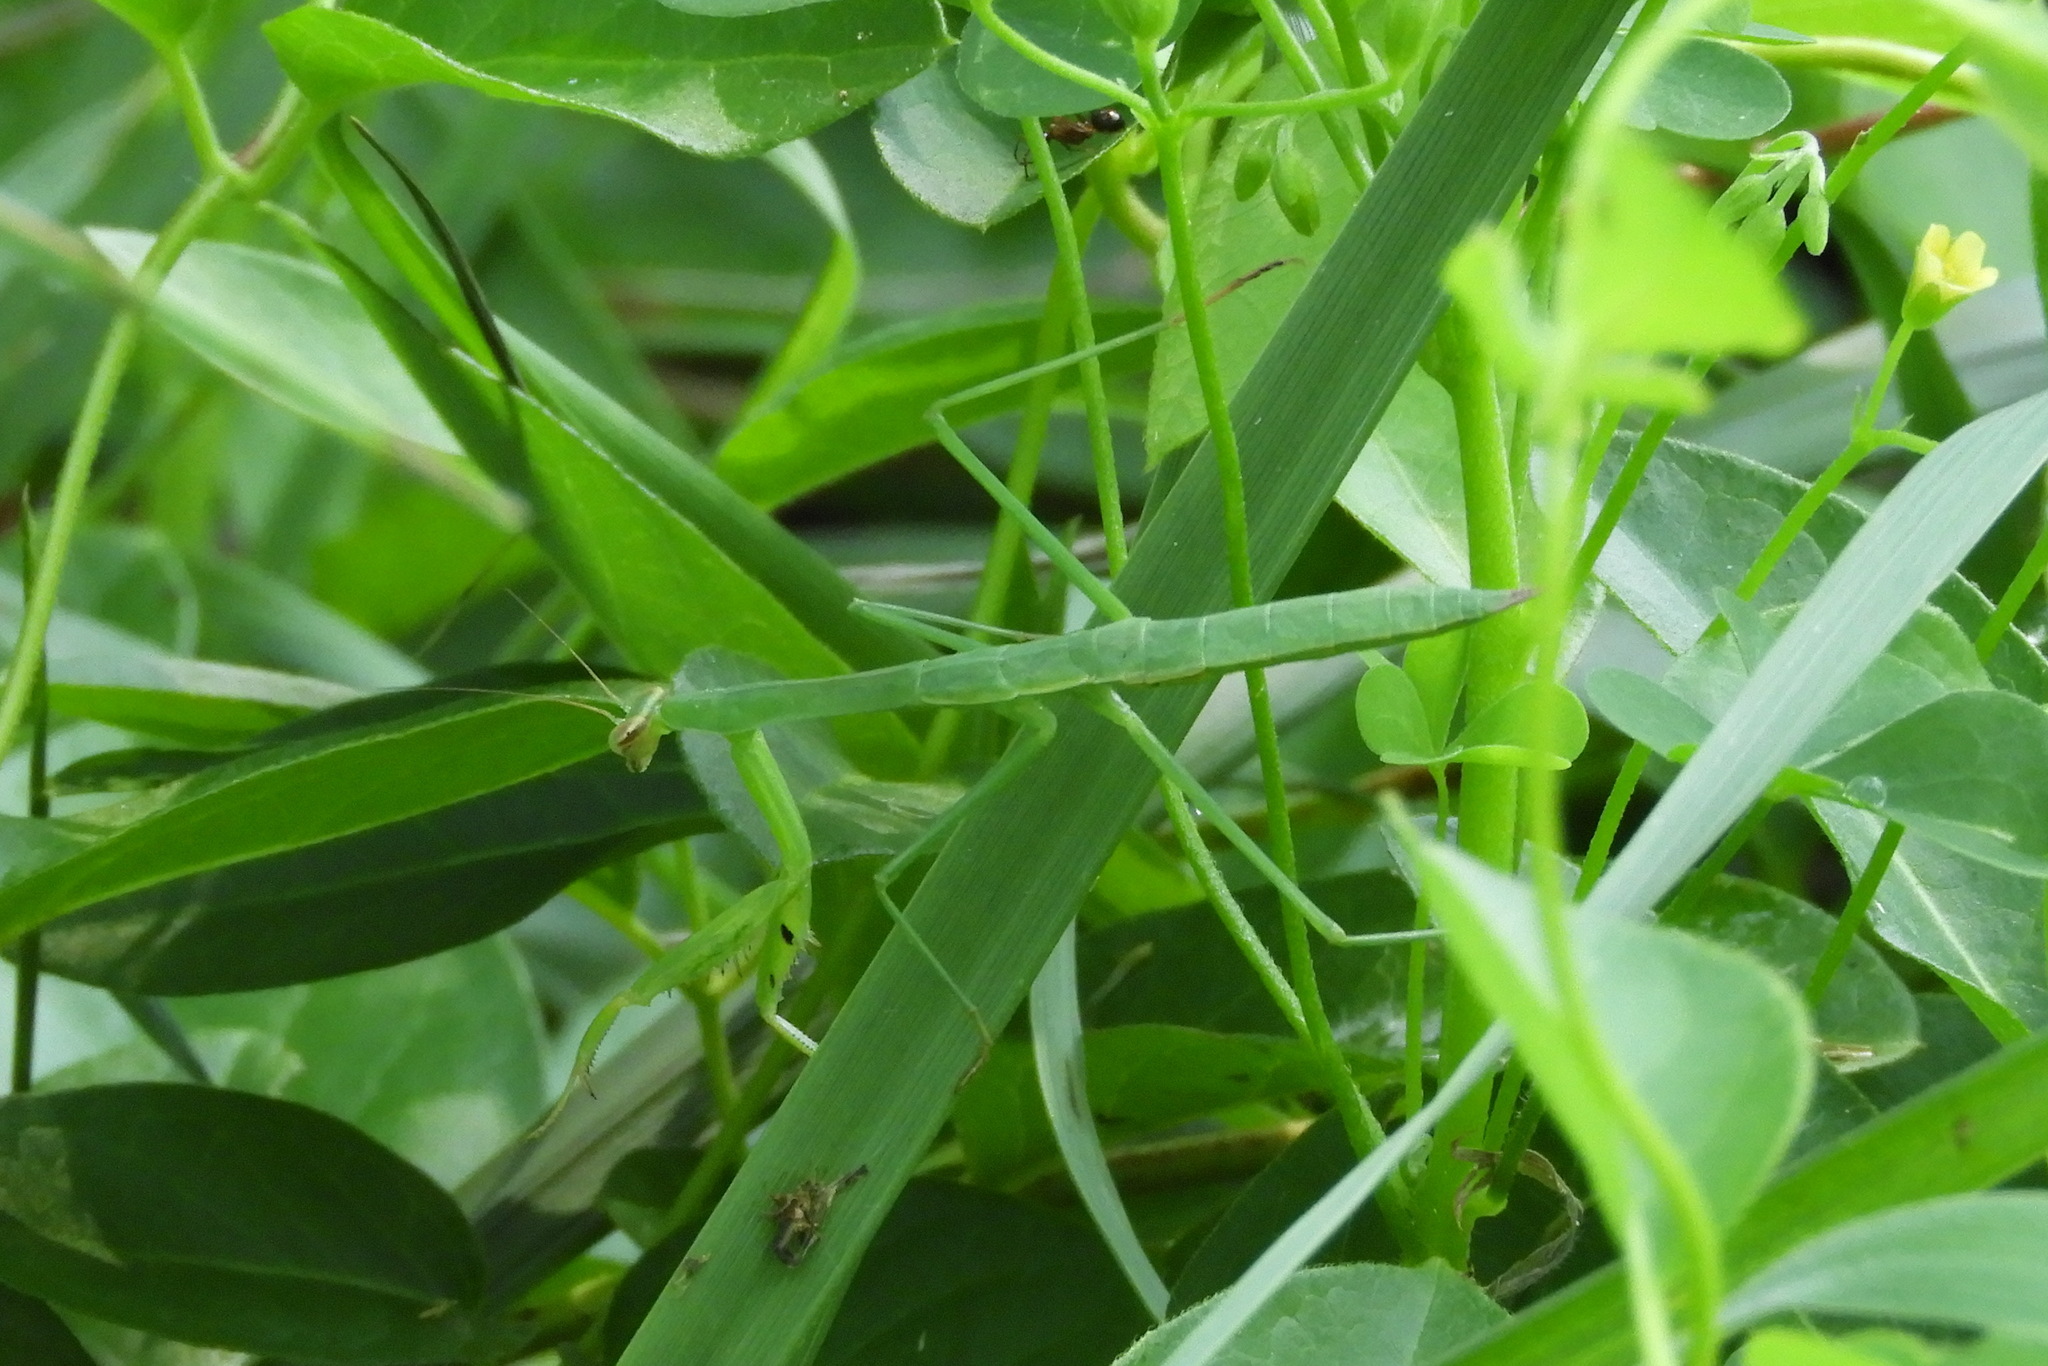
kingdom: Animalia
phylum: Arthropoda
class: Insecta
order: Mantodea
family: Mantidae
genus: Tenodera
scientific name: Tenodera sinensis
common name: Chinese mantis
